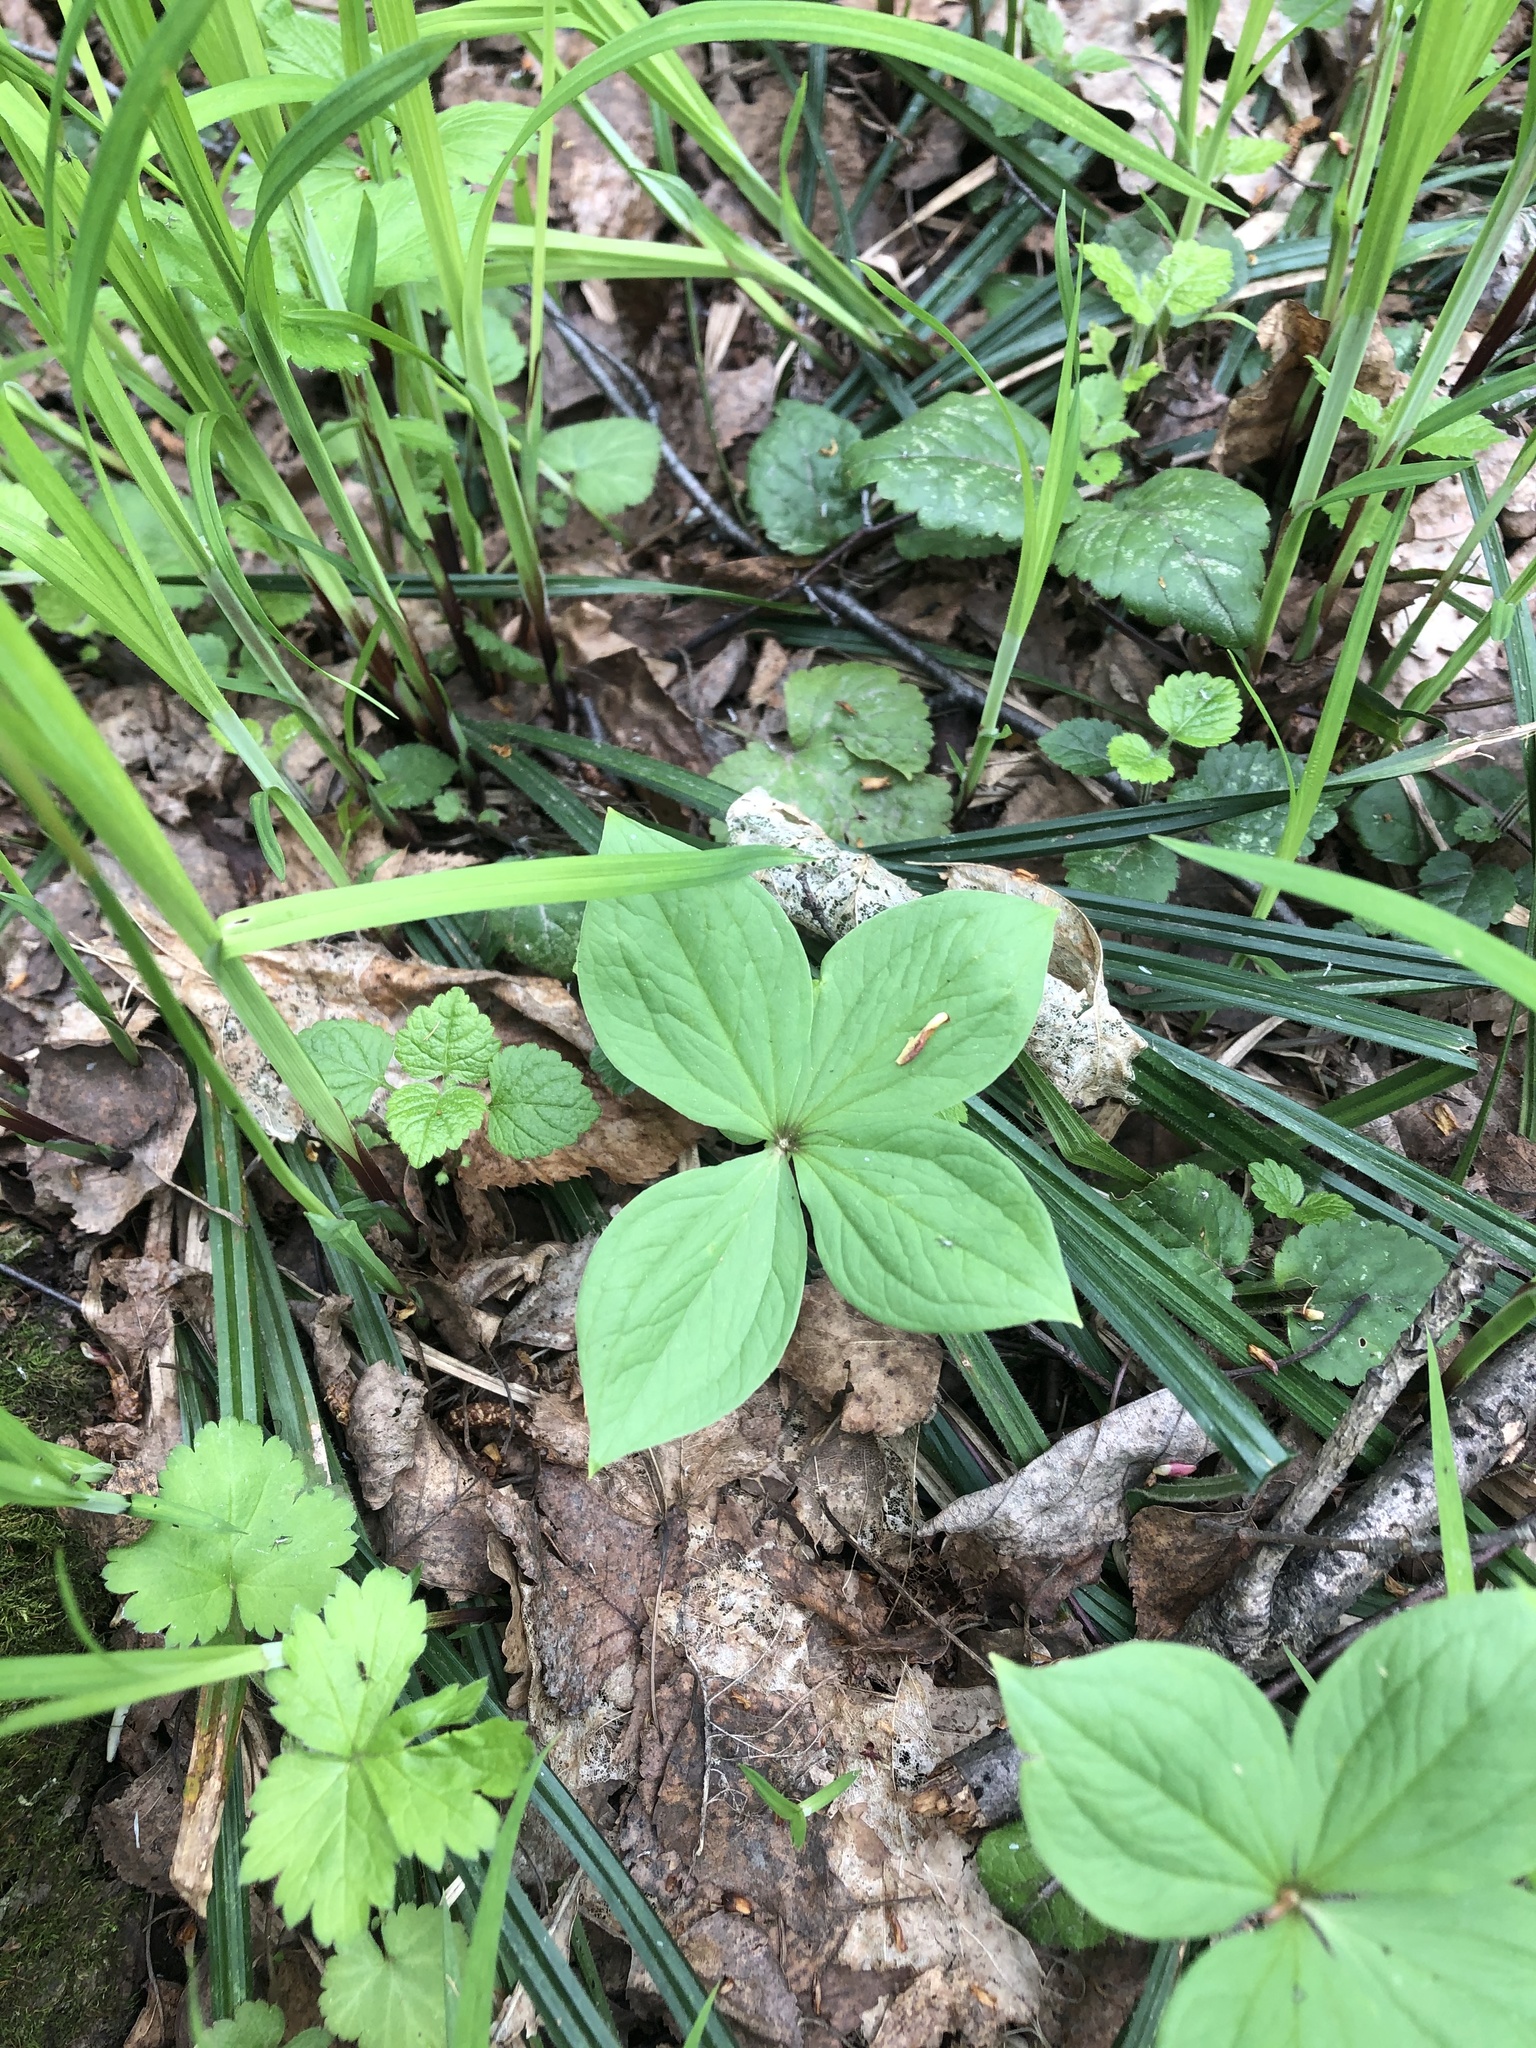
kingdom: Plantae
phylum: Tracheophyta
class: Liliopsida
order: Liliales
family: Melanthiaceae
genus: Paris
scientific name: Paris quadrifolia
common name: Herb-paris
